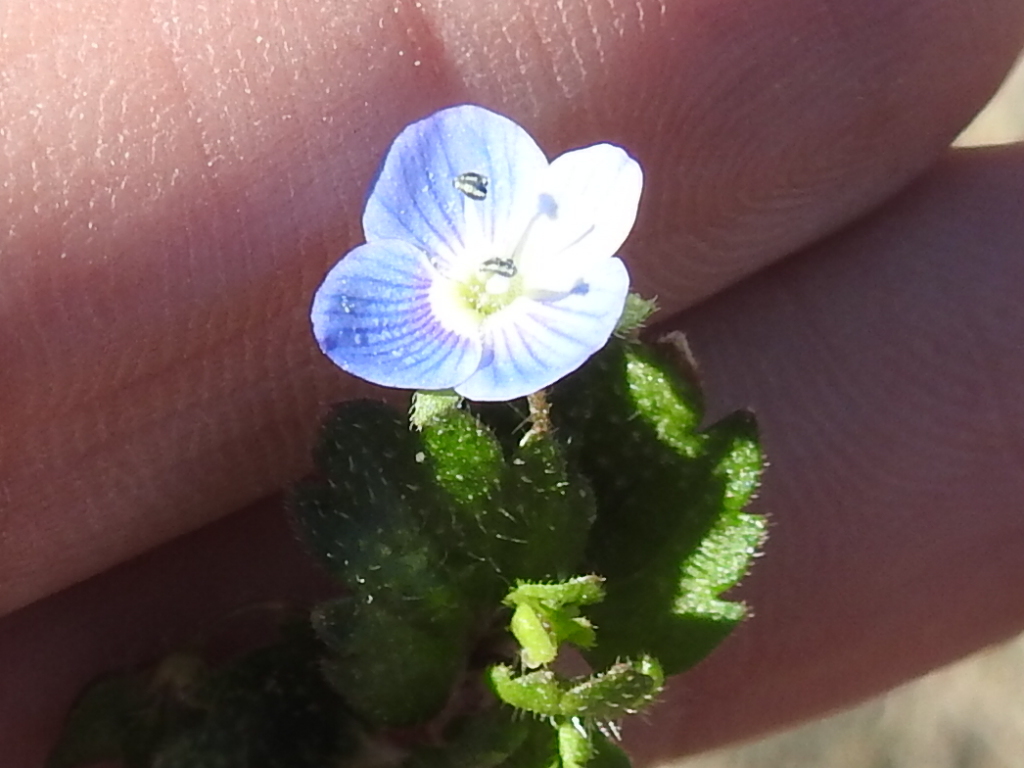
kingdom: Plantae
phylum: Tracheophyta
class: Magnoliopsida
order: Lamiales
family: Plantaginaceae
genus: Veronica
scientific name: Veronica persica
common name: Common field-speedwell
